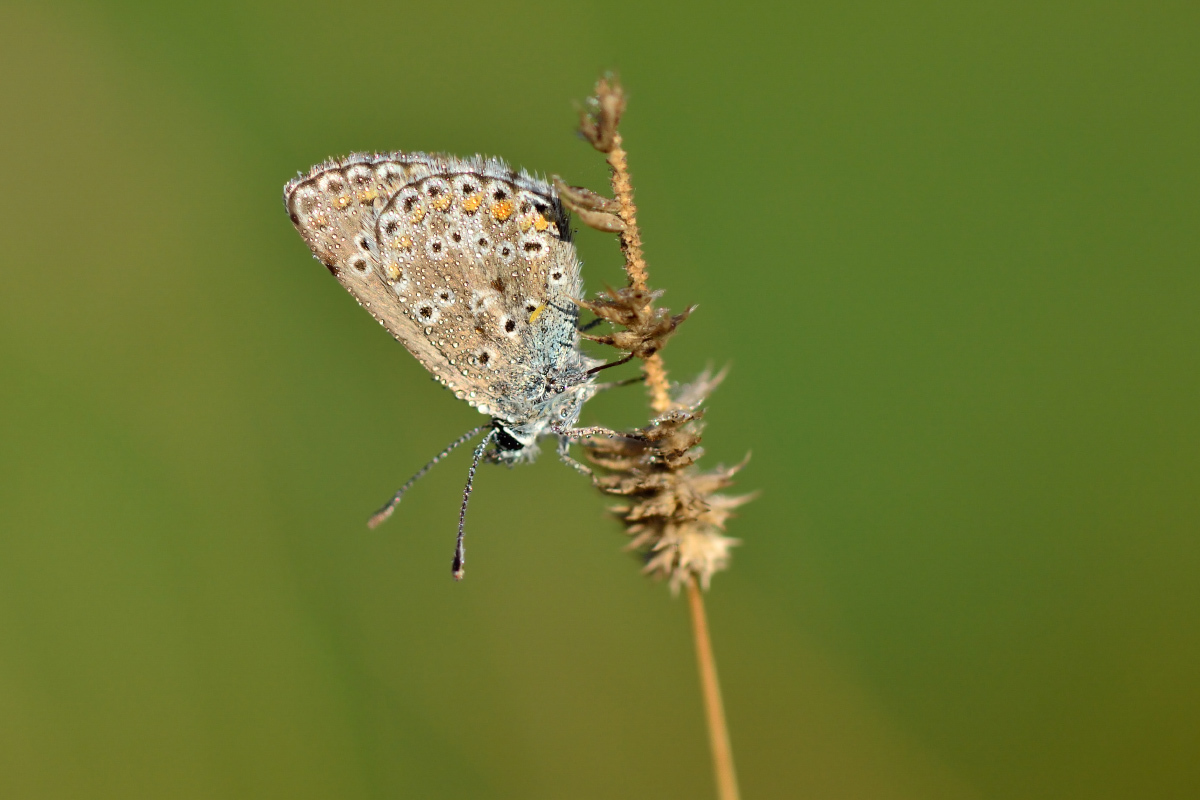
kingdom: Animalia
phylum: Arthropoda
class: Insecta
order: Lepidoptera
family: Lycaenidae
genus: Aricia
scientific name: Aricia artaxerxes
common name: Northern brown argus
